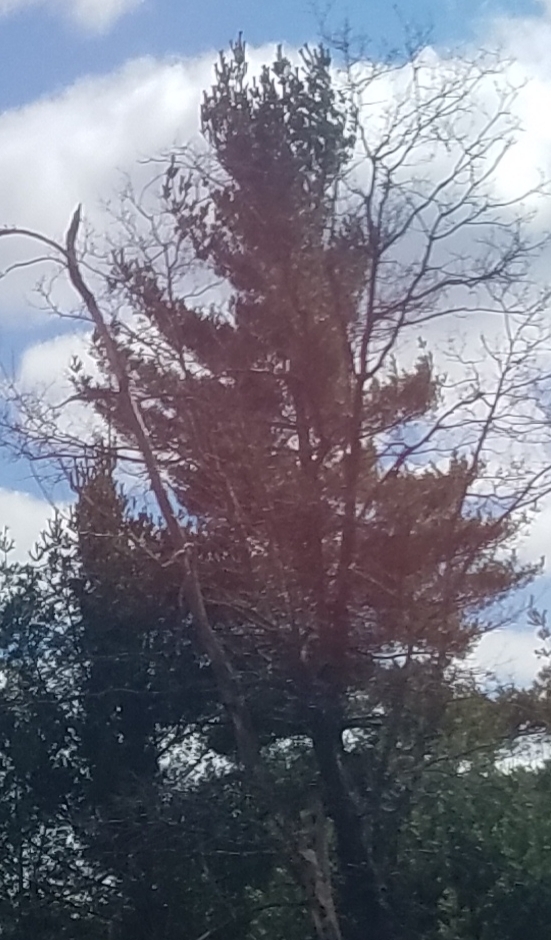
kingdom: Plantae
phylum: Tracheophyta
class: Pinopsida
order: Pinales
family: Pinaceae
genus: Pinus
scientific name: Pinus strobus
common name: Weymouth pine
